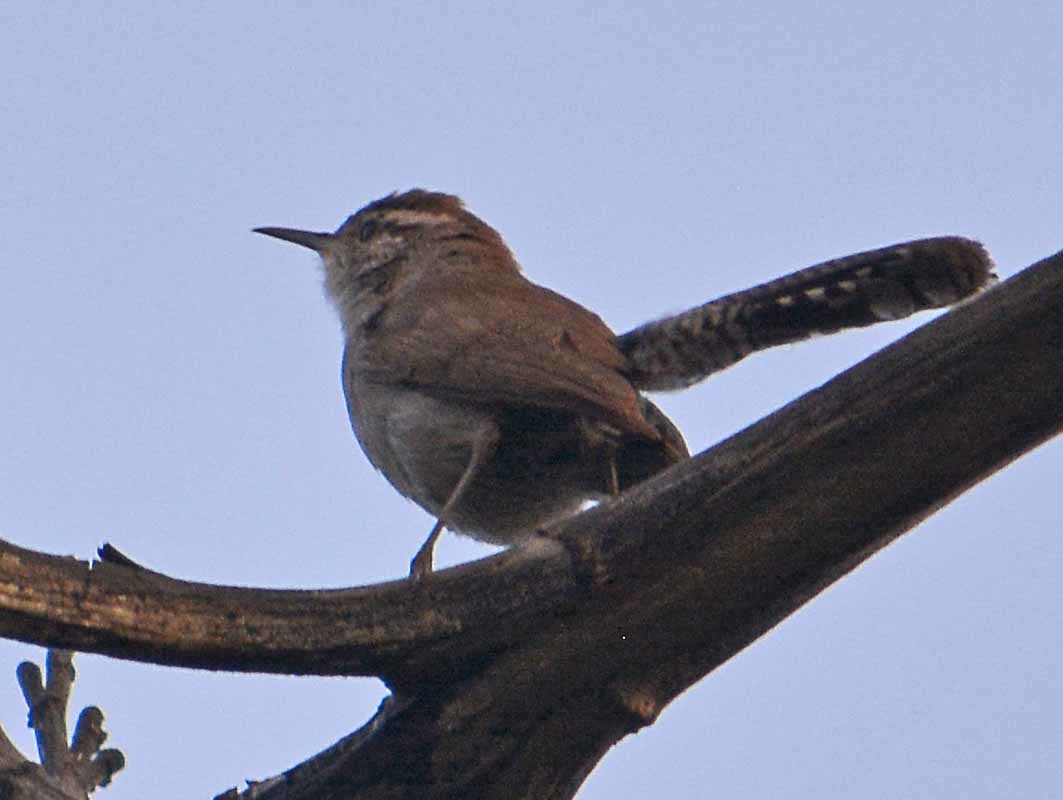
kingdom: Animalia
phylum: Chordata
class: Aves
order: Passeriformes
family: Troglodytidae
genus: Thryomanes
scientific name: Thryomanes bewickii
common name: Bewick's wren
